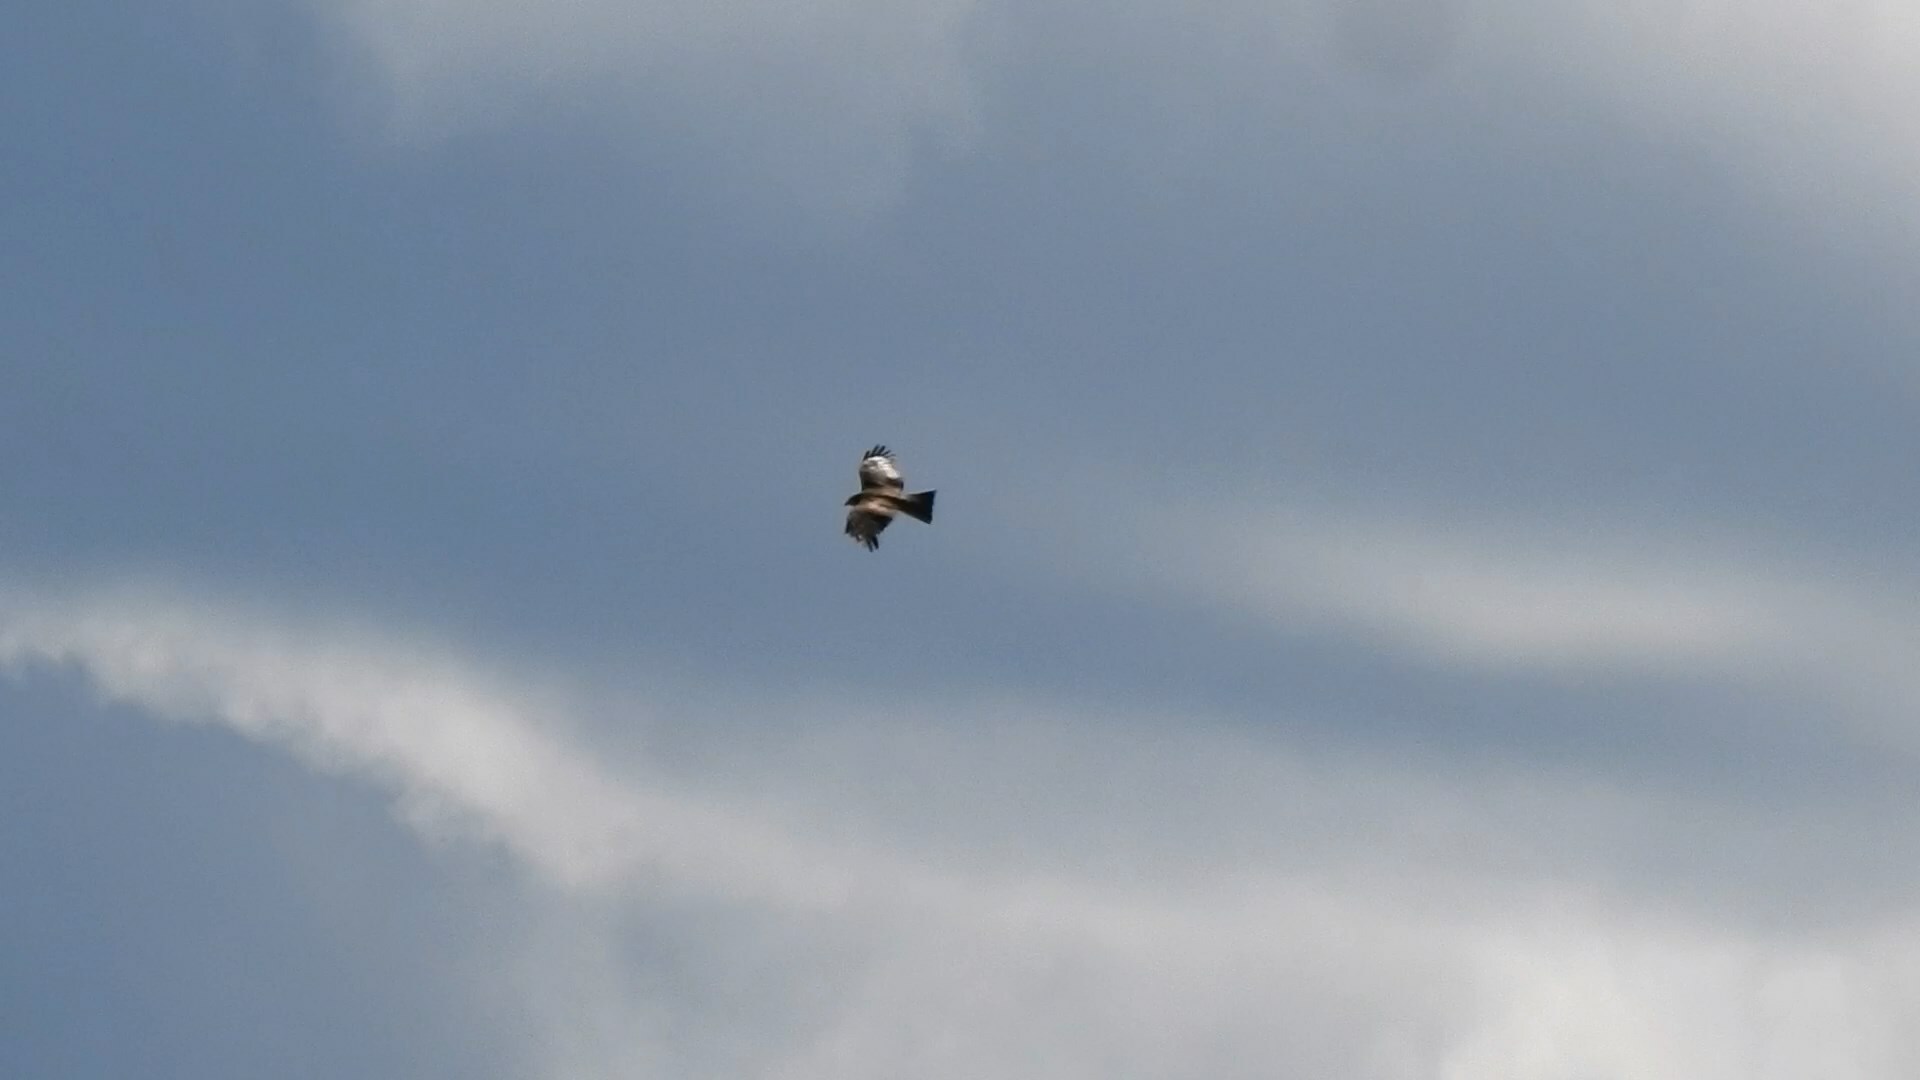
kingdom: Animalia
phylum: Chordata
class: Aves
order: Accipitriformes
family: Accipitridae
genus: Milvus
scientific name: Milvus migrans
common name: Black kite
